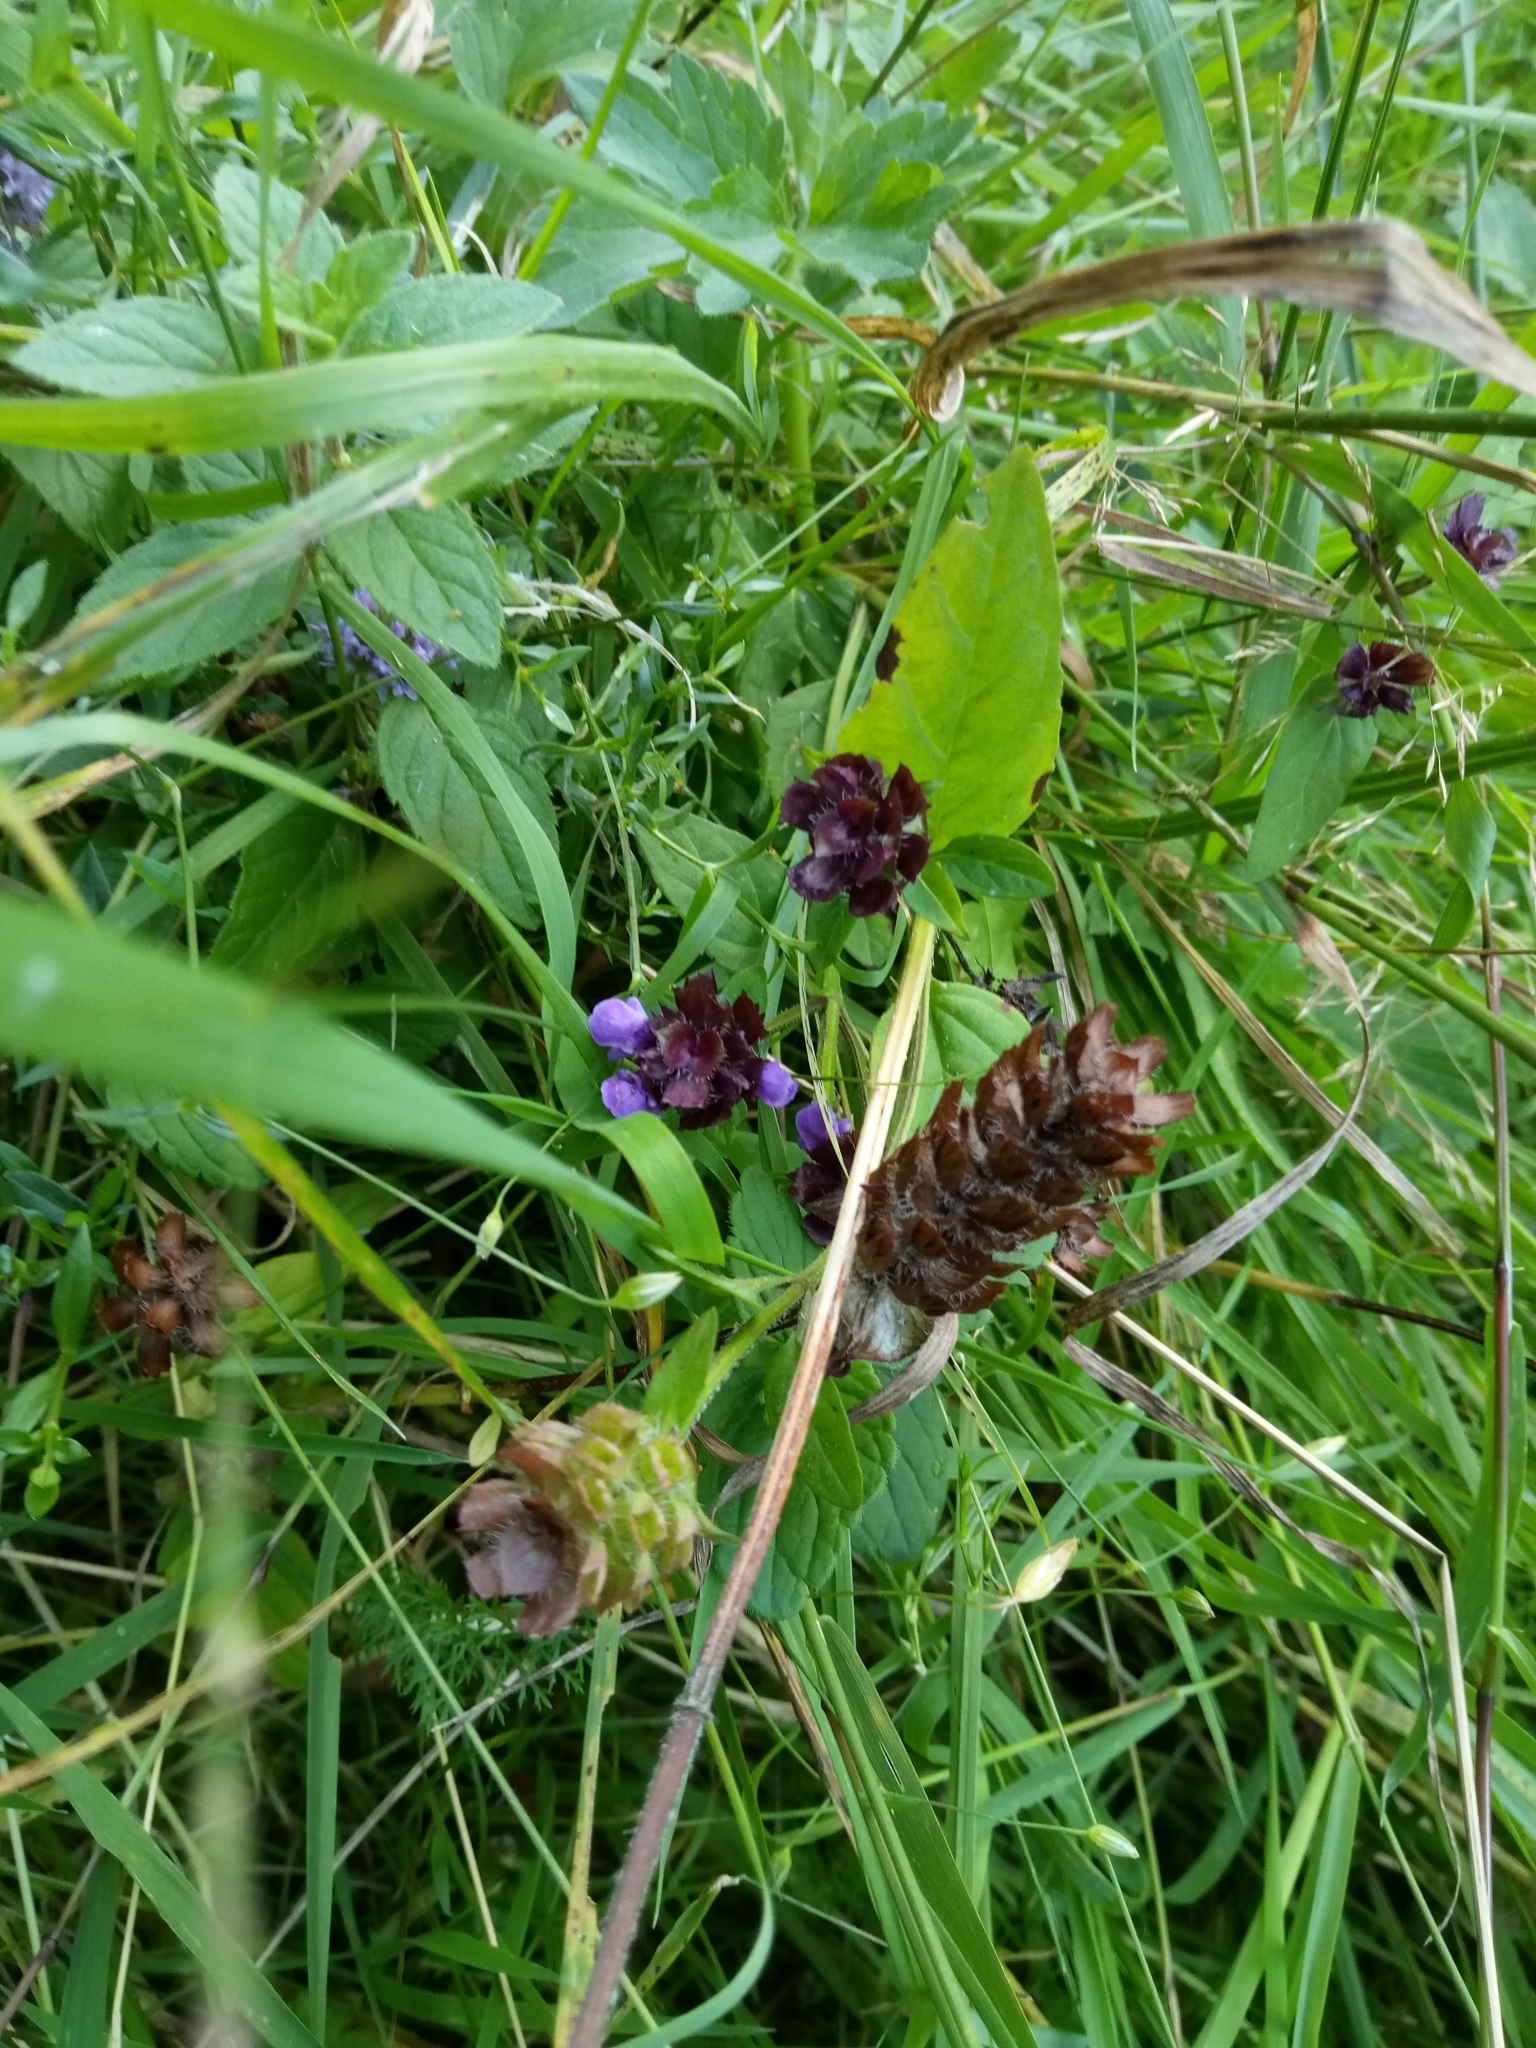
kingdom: Plantae
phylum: Tracheophyta
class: Magnoliopsida
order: Lamiales
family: Lamiaceae
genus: Prunella
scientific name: Prunella vulgaris
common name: Heal-all
